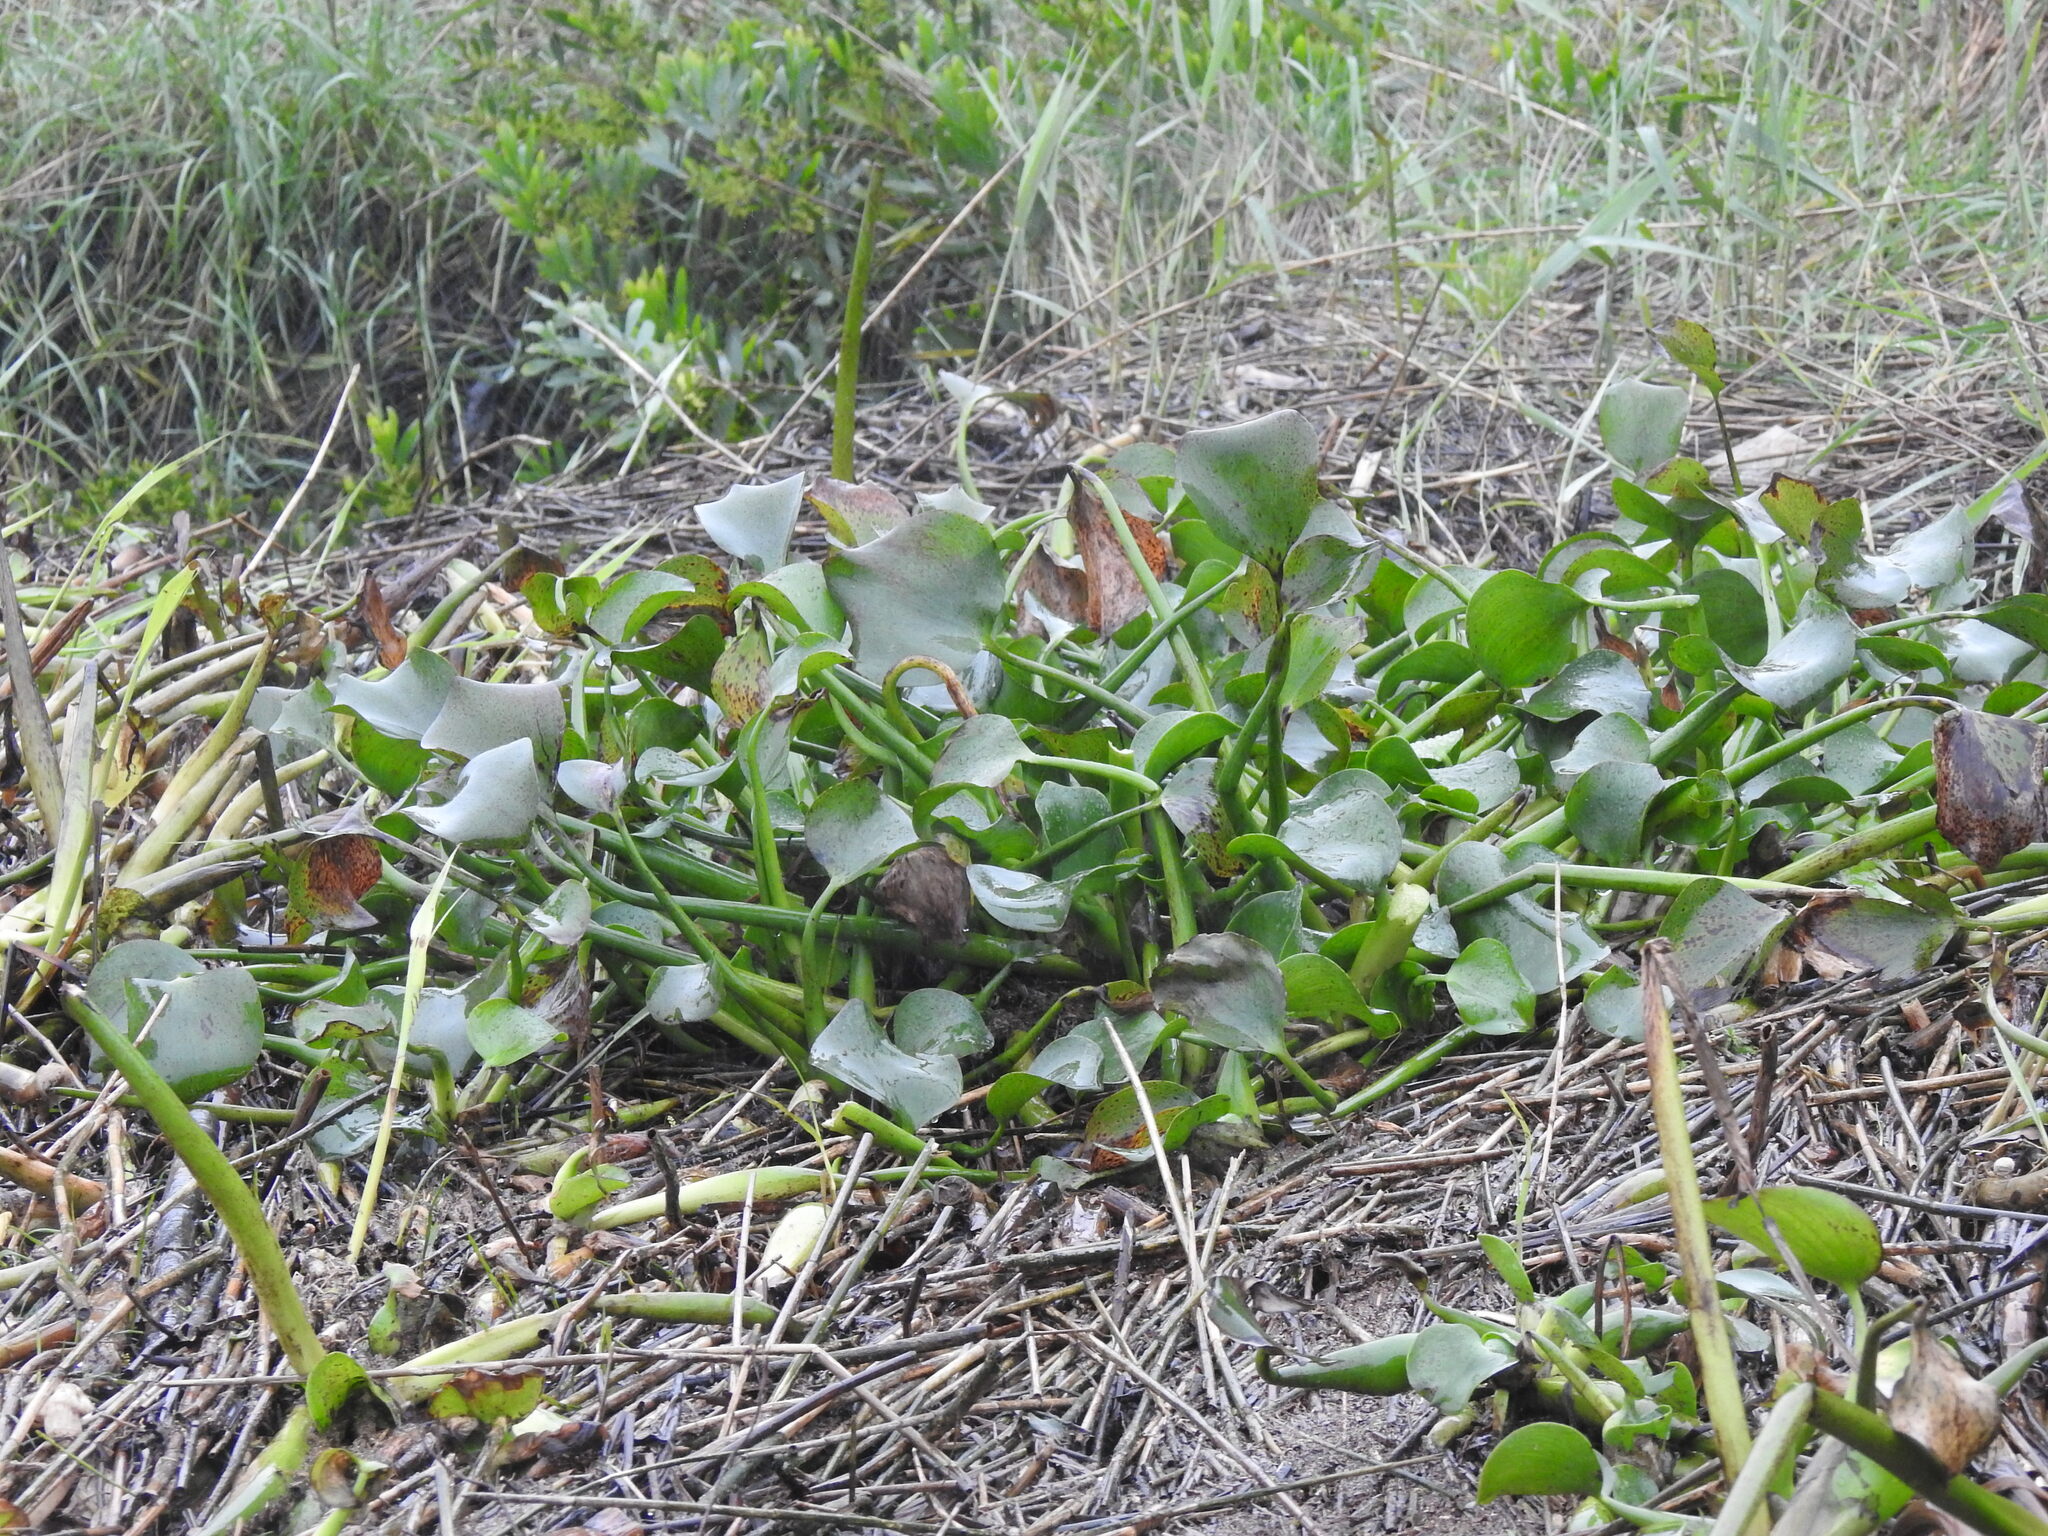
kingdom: Plantae
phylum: Tracheophyta
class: Liliopsida
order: Commelinales
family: Pontederiaceae
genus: Pontederia
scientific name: Pontederia crassipes
